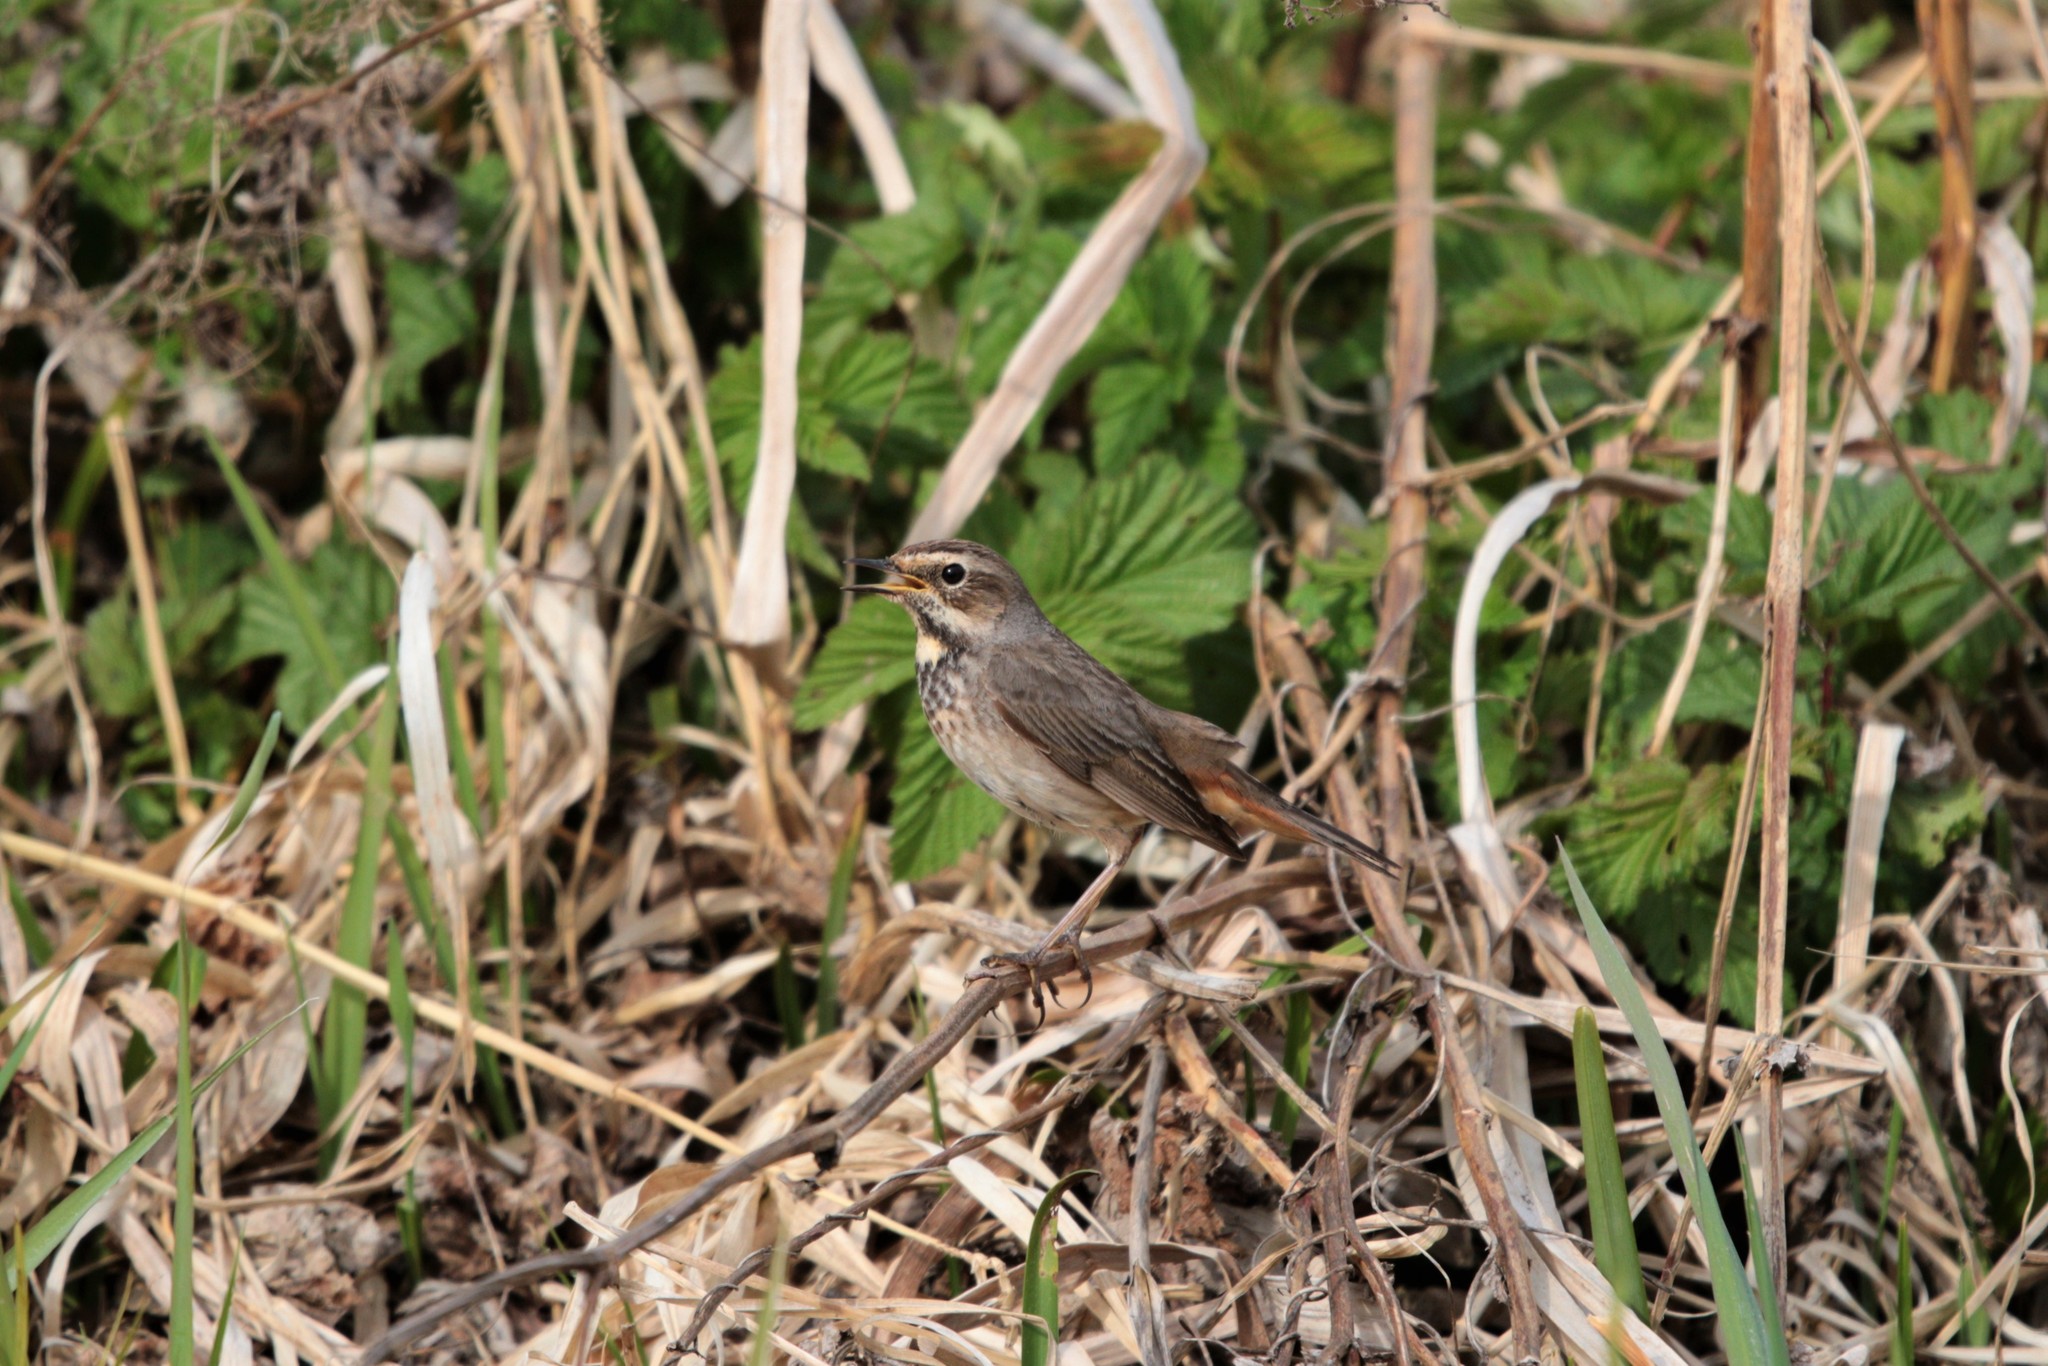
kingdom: Animalia
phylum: Chordata
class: Aves
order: Passeriformes
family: Muscicapidae
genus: Luscinia
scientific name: Luscinia svecica
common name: Bluethroat
